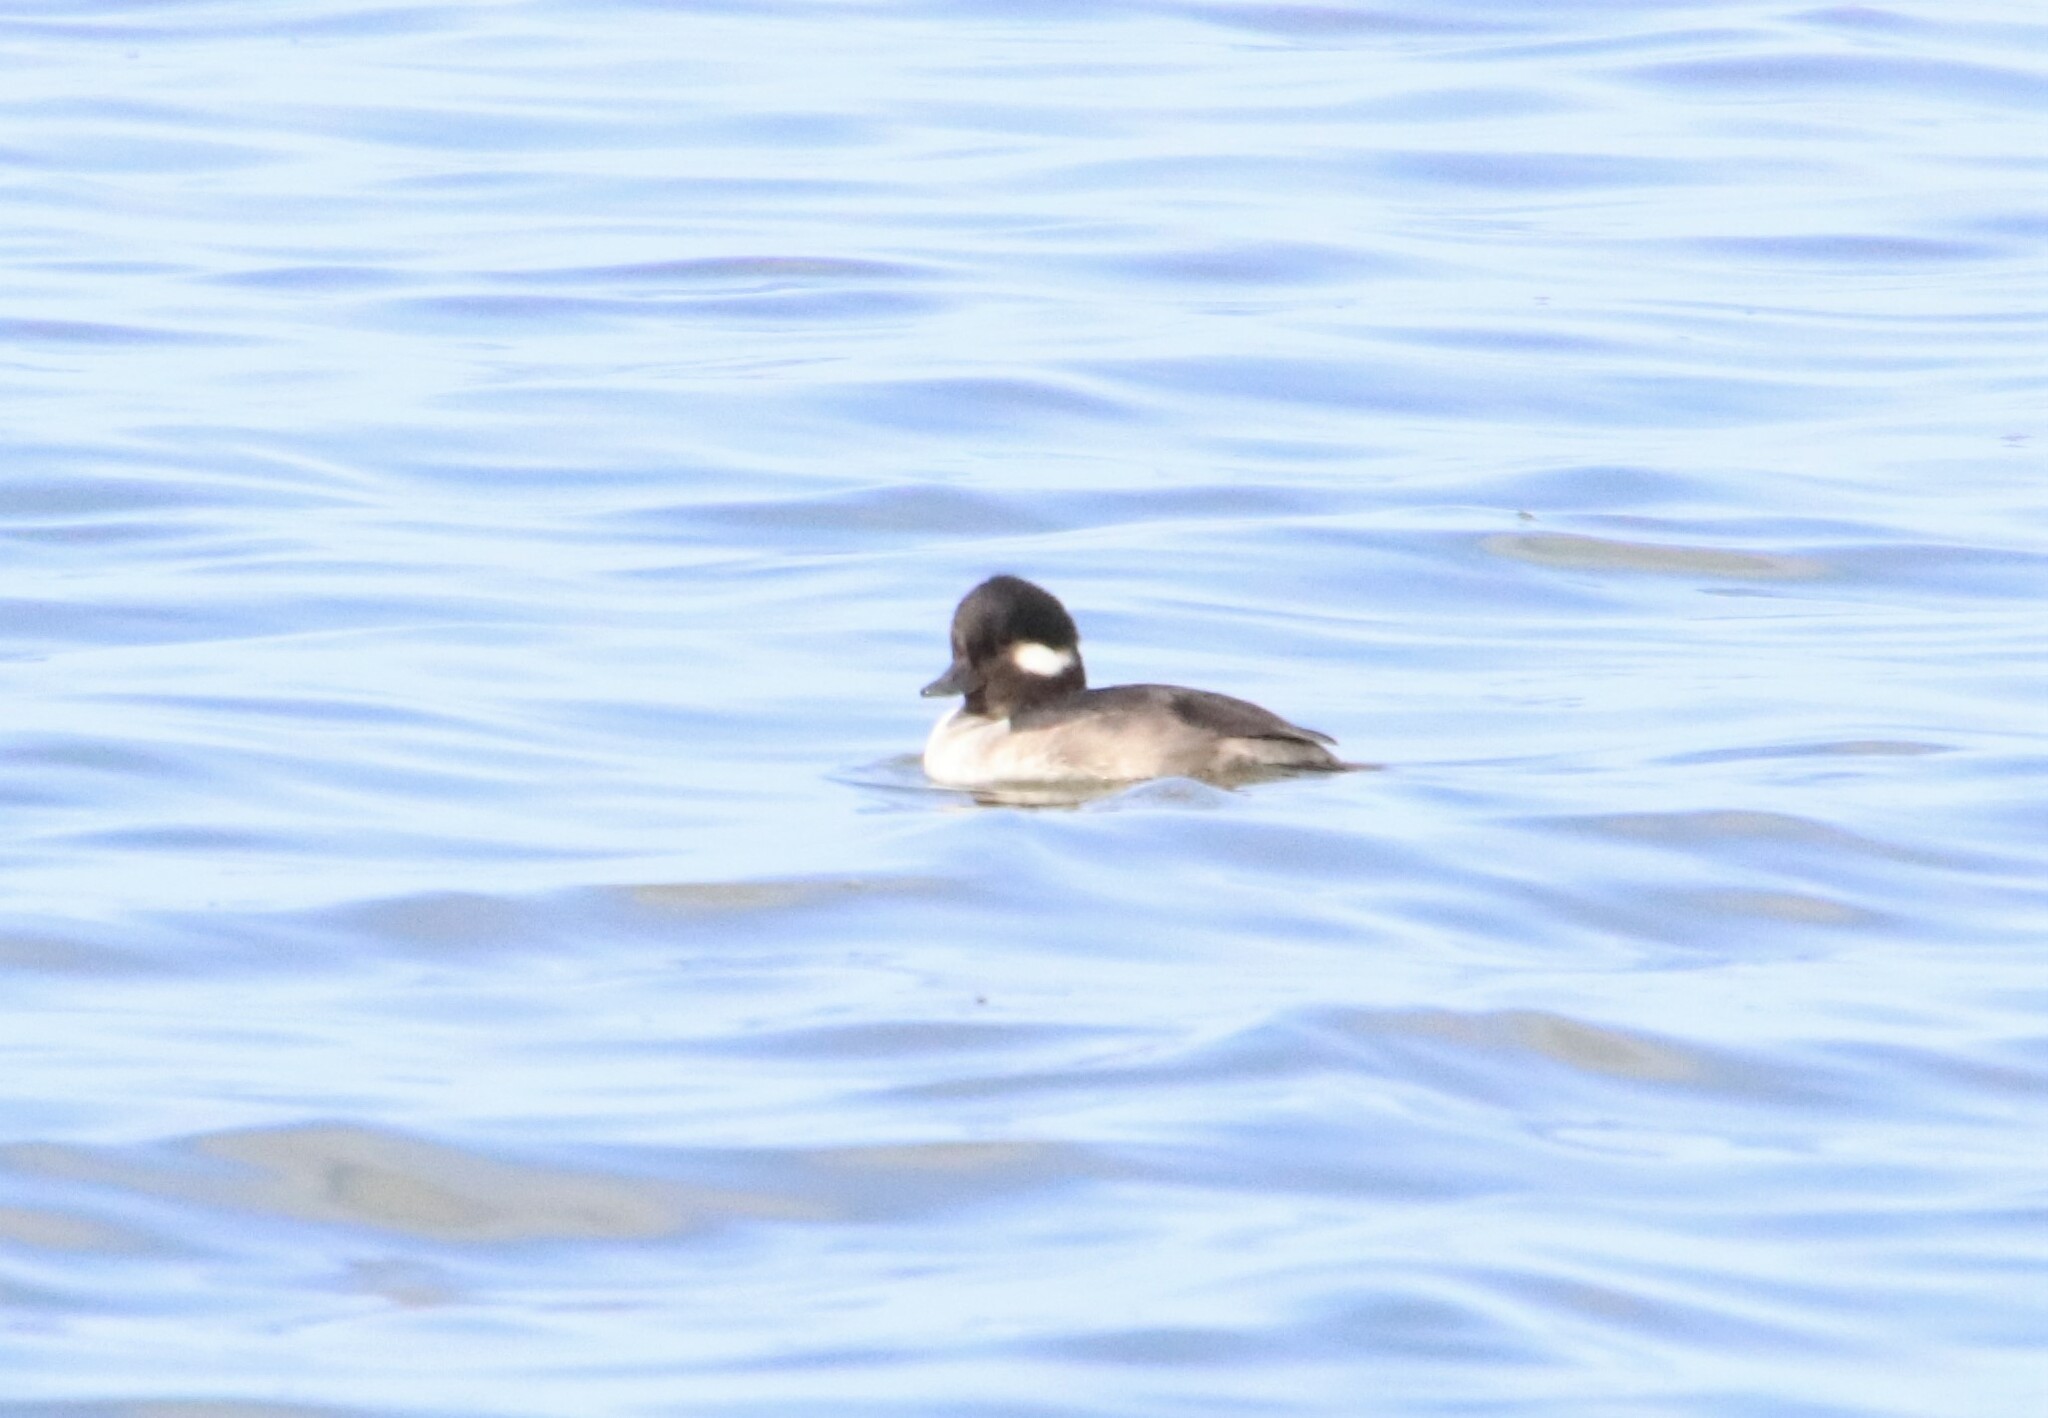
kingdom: Animalia
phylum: Chordata
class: Aves
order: Anseriformes
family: Anatidae
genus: Bucephala
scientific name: Bucephala albeola
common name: Bufflehead
